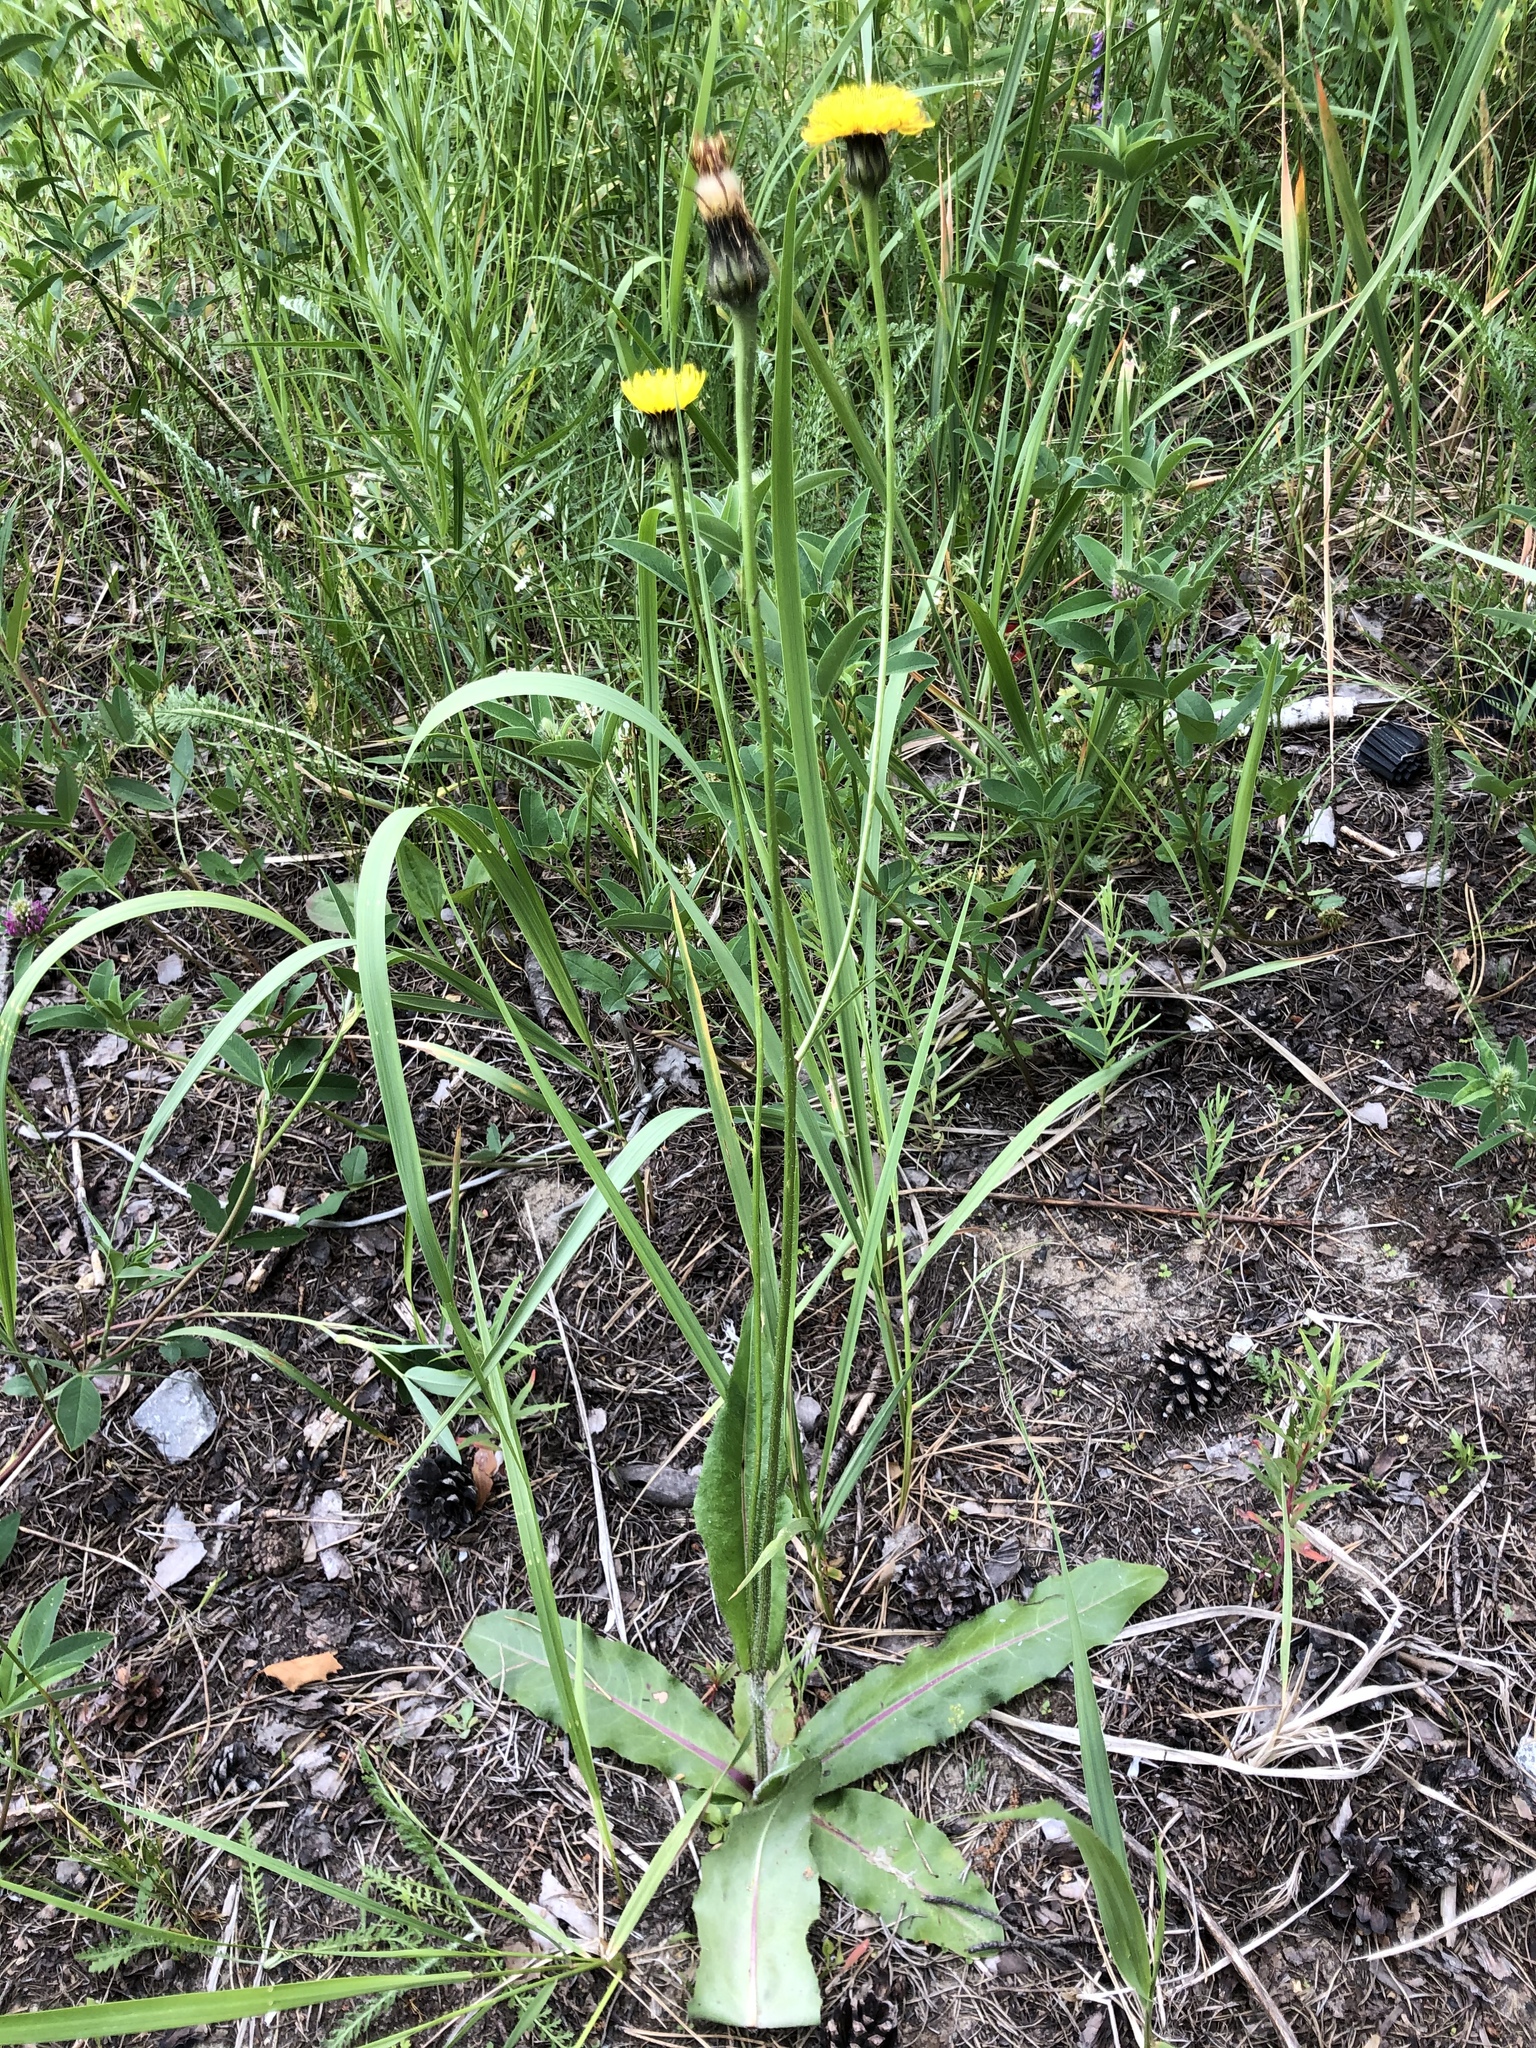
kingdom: Plantae
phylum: Tracheophyta
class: Magnoliopsida
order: Asterales
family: Asteraceae
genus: Trommsdorffia
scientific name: Trommsdorffia maculata
